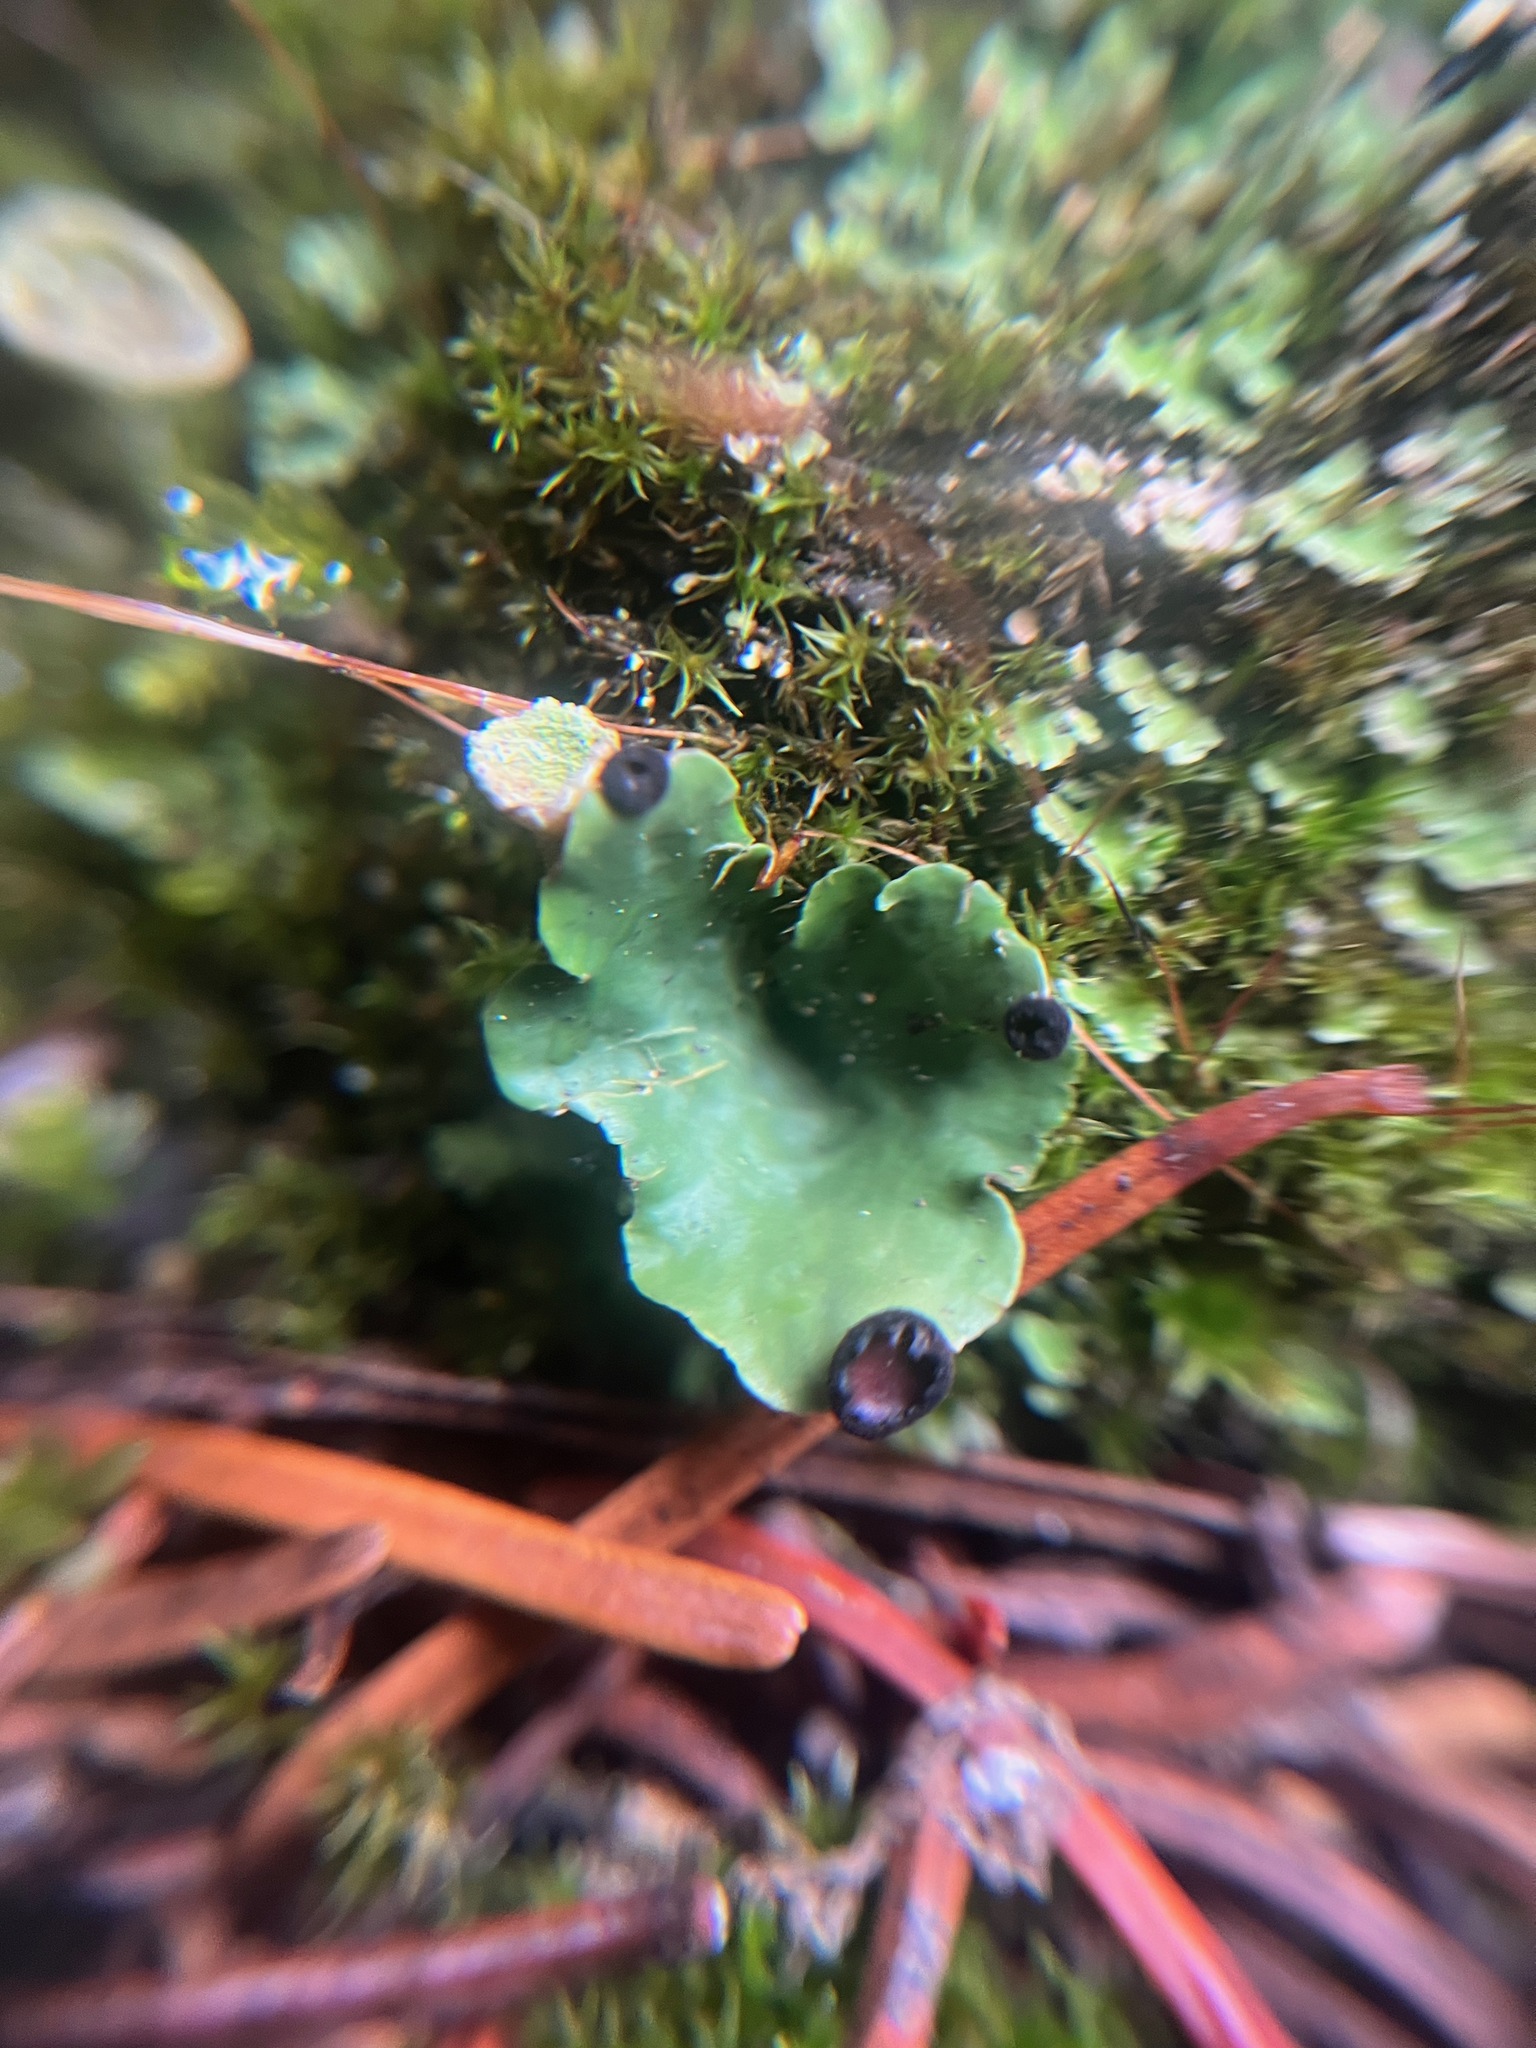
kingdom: Fungi
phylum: Ascomycota
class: Lecanoromycetes
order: Peltigerales
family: Peltigeraceae
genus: Peltigera
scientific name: Peltigera venosa
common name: Pixie gowns lichen
